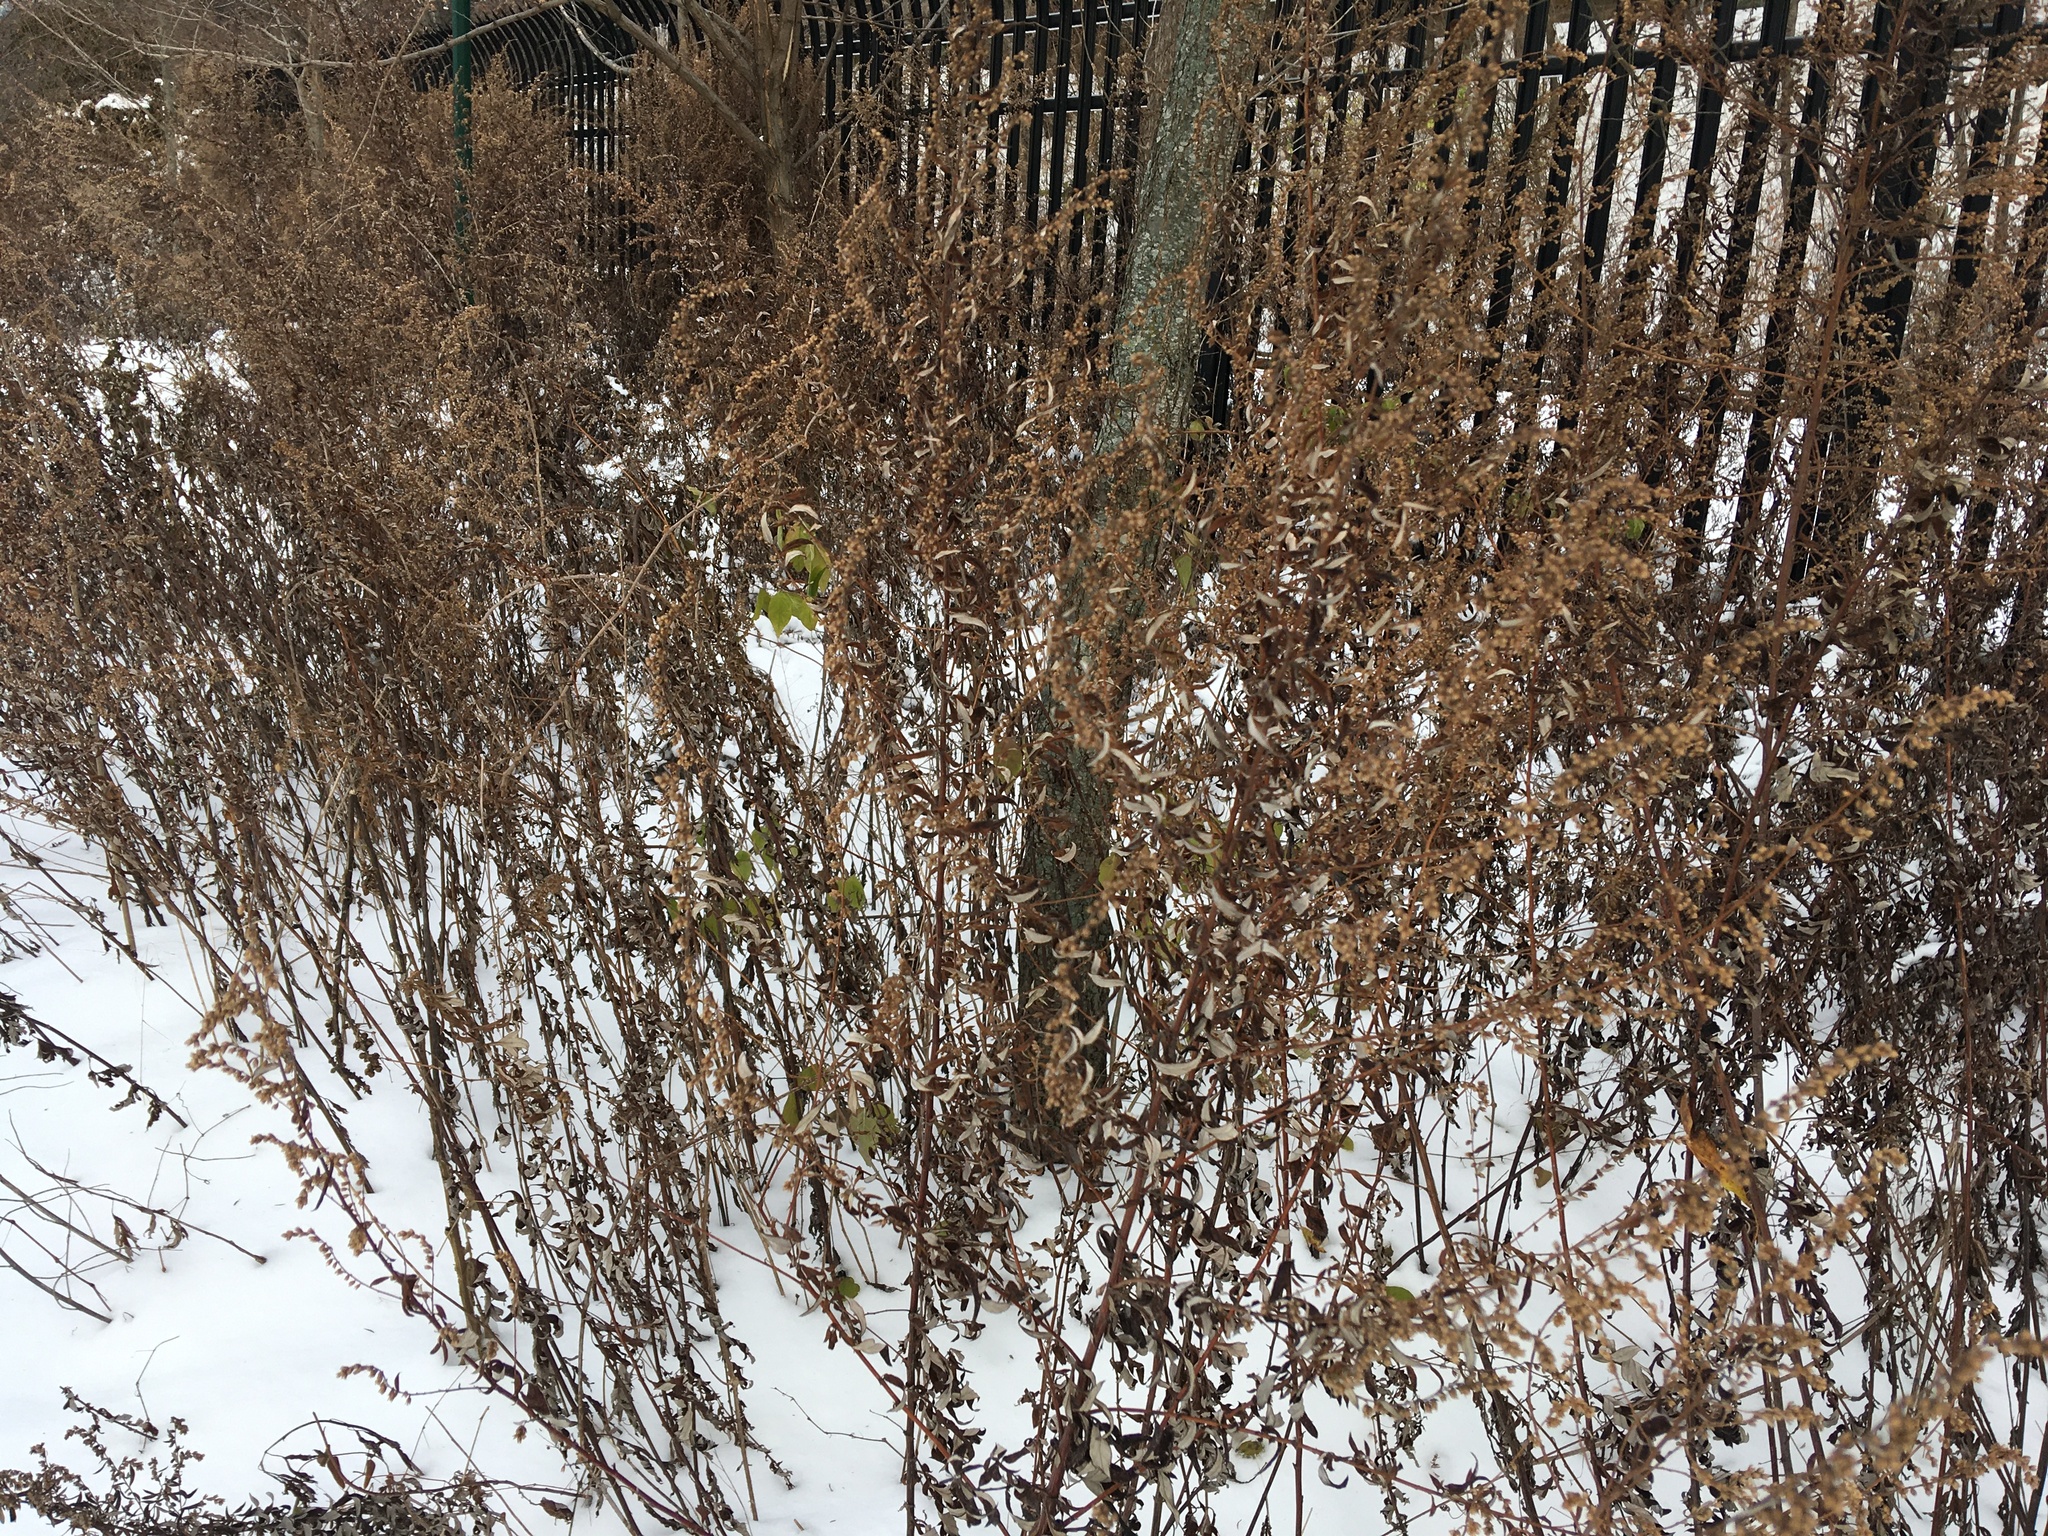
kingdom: Plantae
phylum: Tracheophyta
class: Magnoliopsida
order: Asterales
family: Asteraceae
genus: Artemisia
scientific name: Artemisia vulgaris
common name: Mugwort
